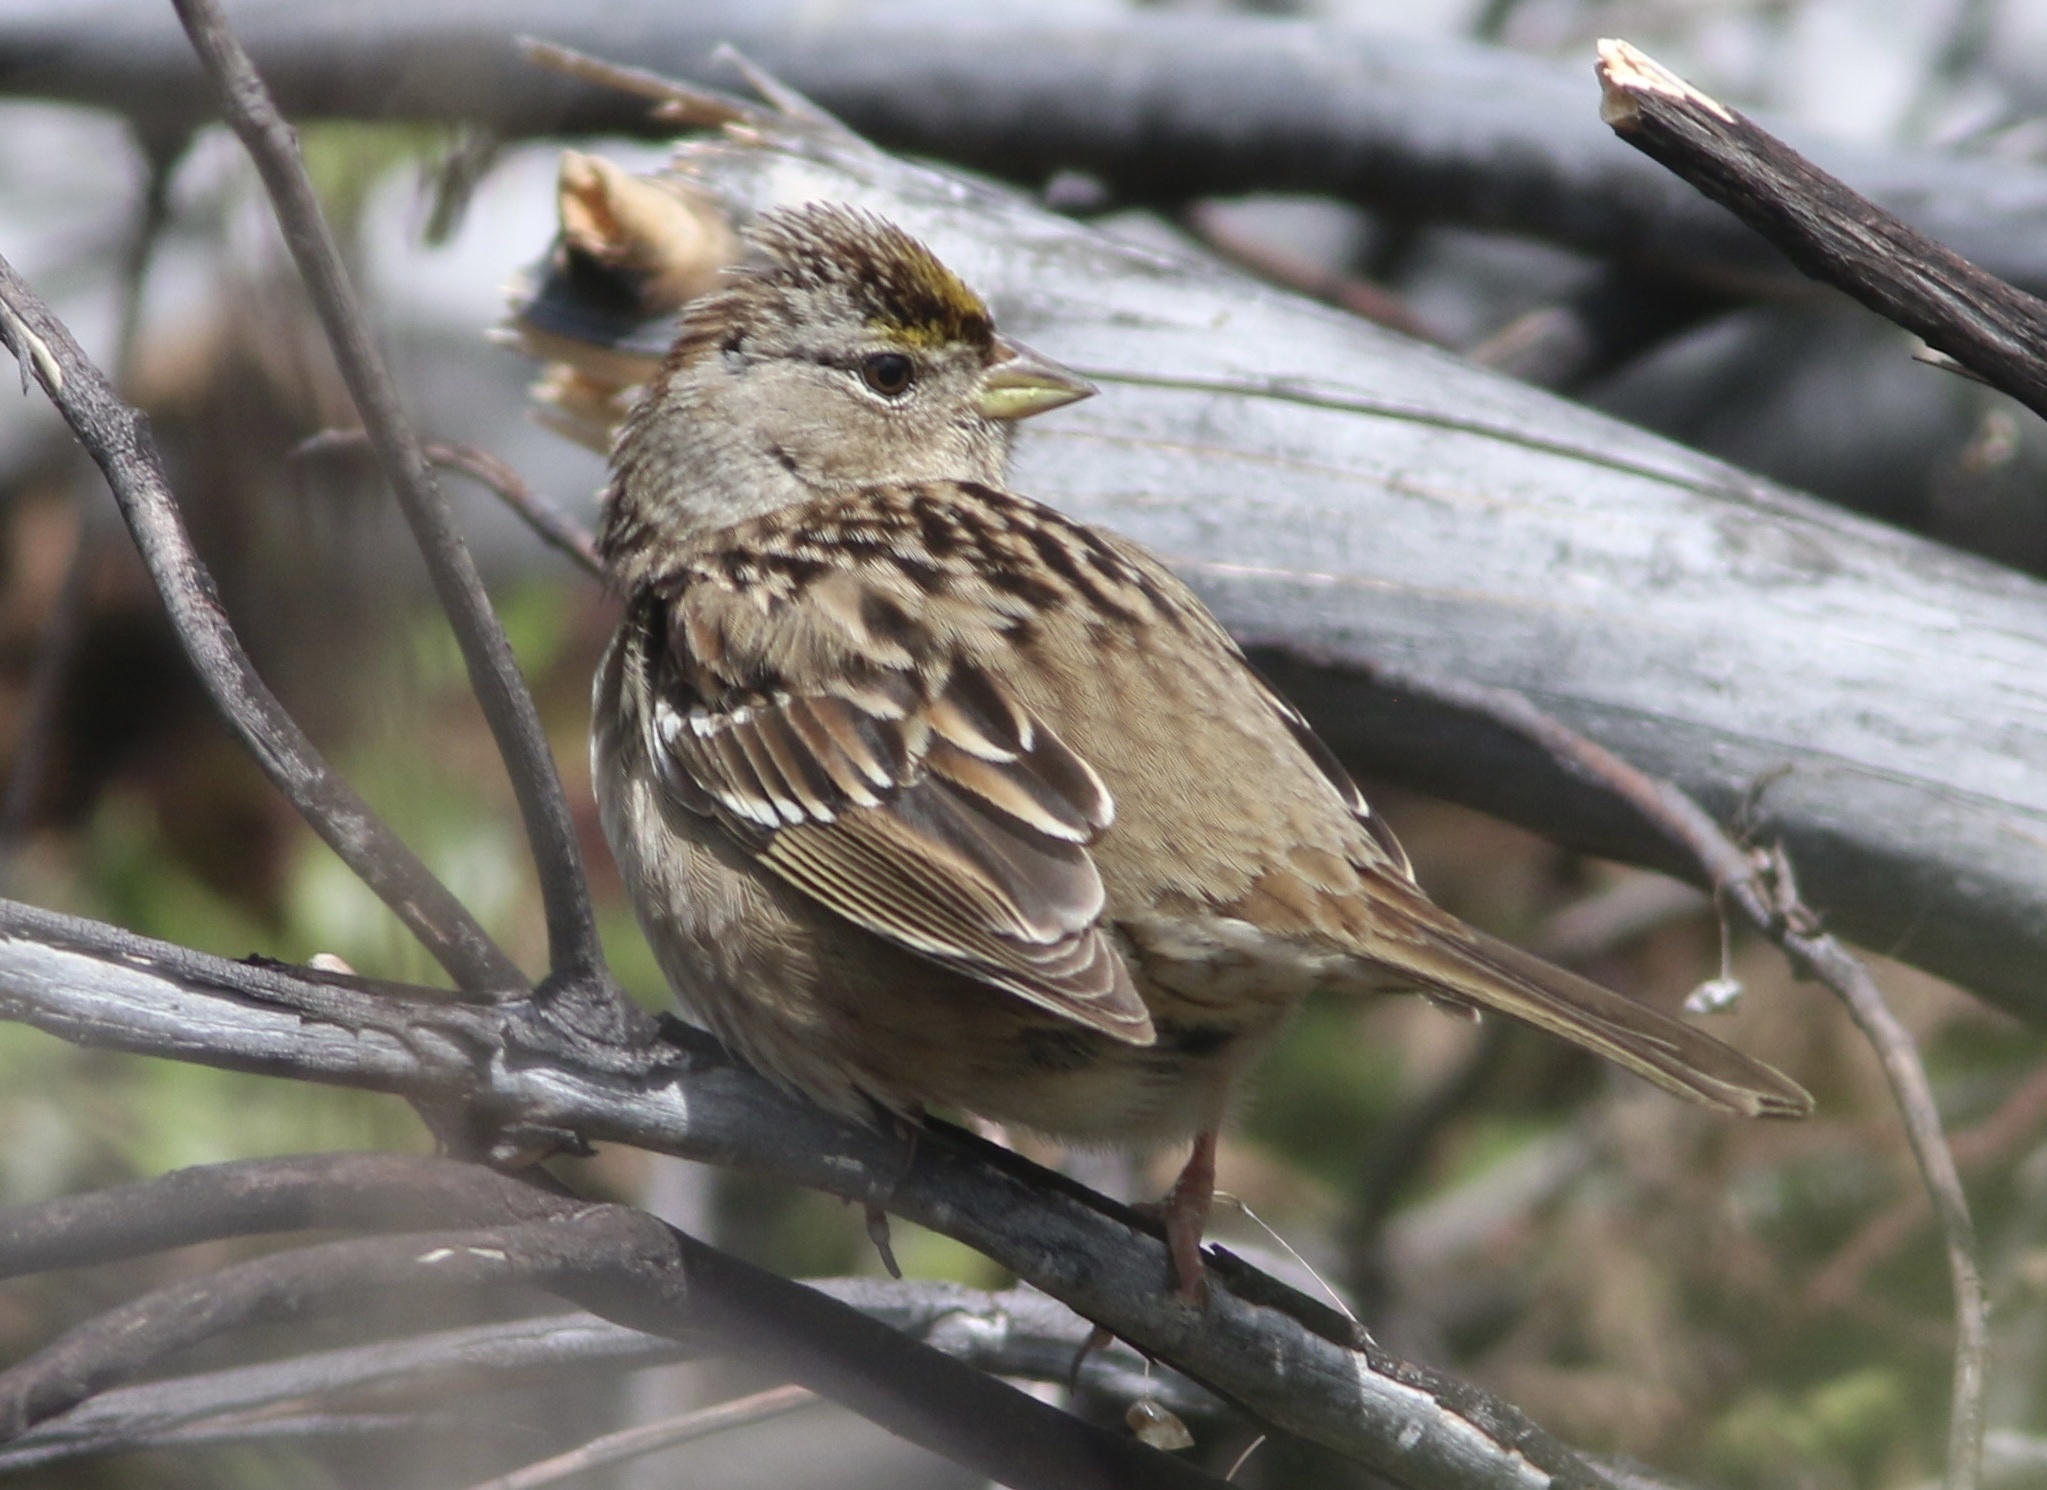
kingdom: Animalia
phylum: Chordata
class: Aves
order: Passeriformes
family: Passerellidae
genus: Zonotrichia
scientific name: Zonotrichia atricapilla
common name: Golden-crowned sparrow
